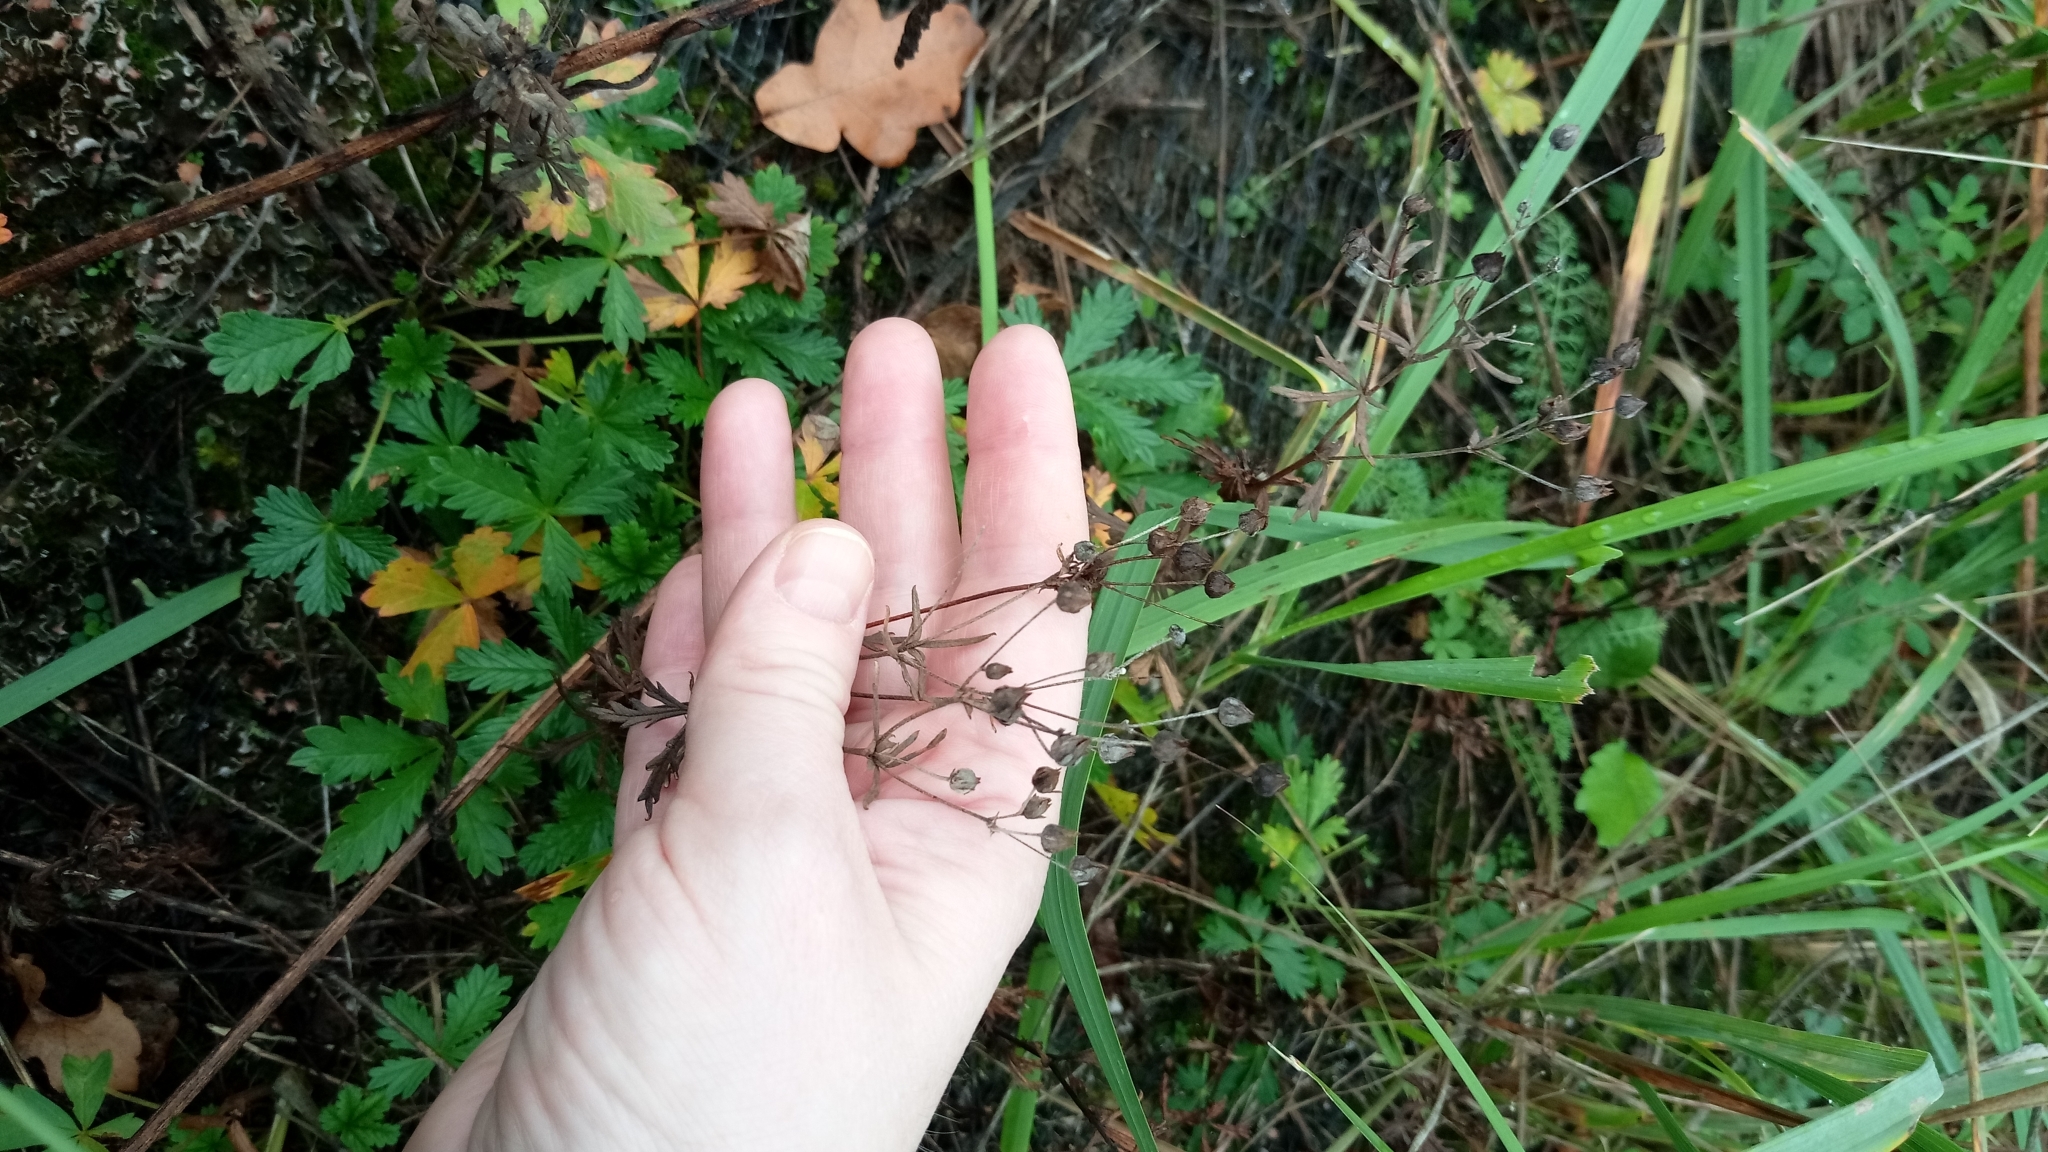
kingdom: Plantae
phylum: Tracheophyta
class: Magnoliopsida
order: Rosales
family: Rosaceae
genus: Potentilla
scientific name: Potentilla argentea
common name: Hoary cinquefoil
